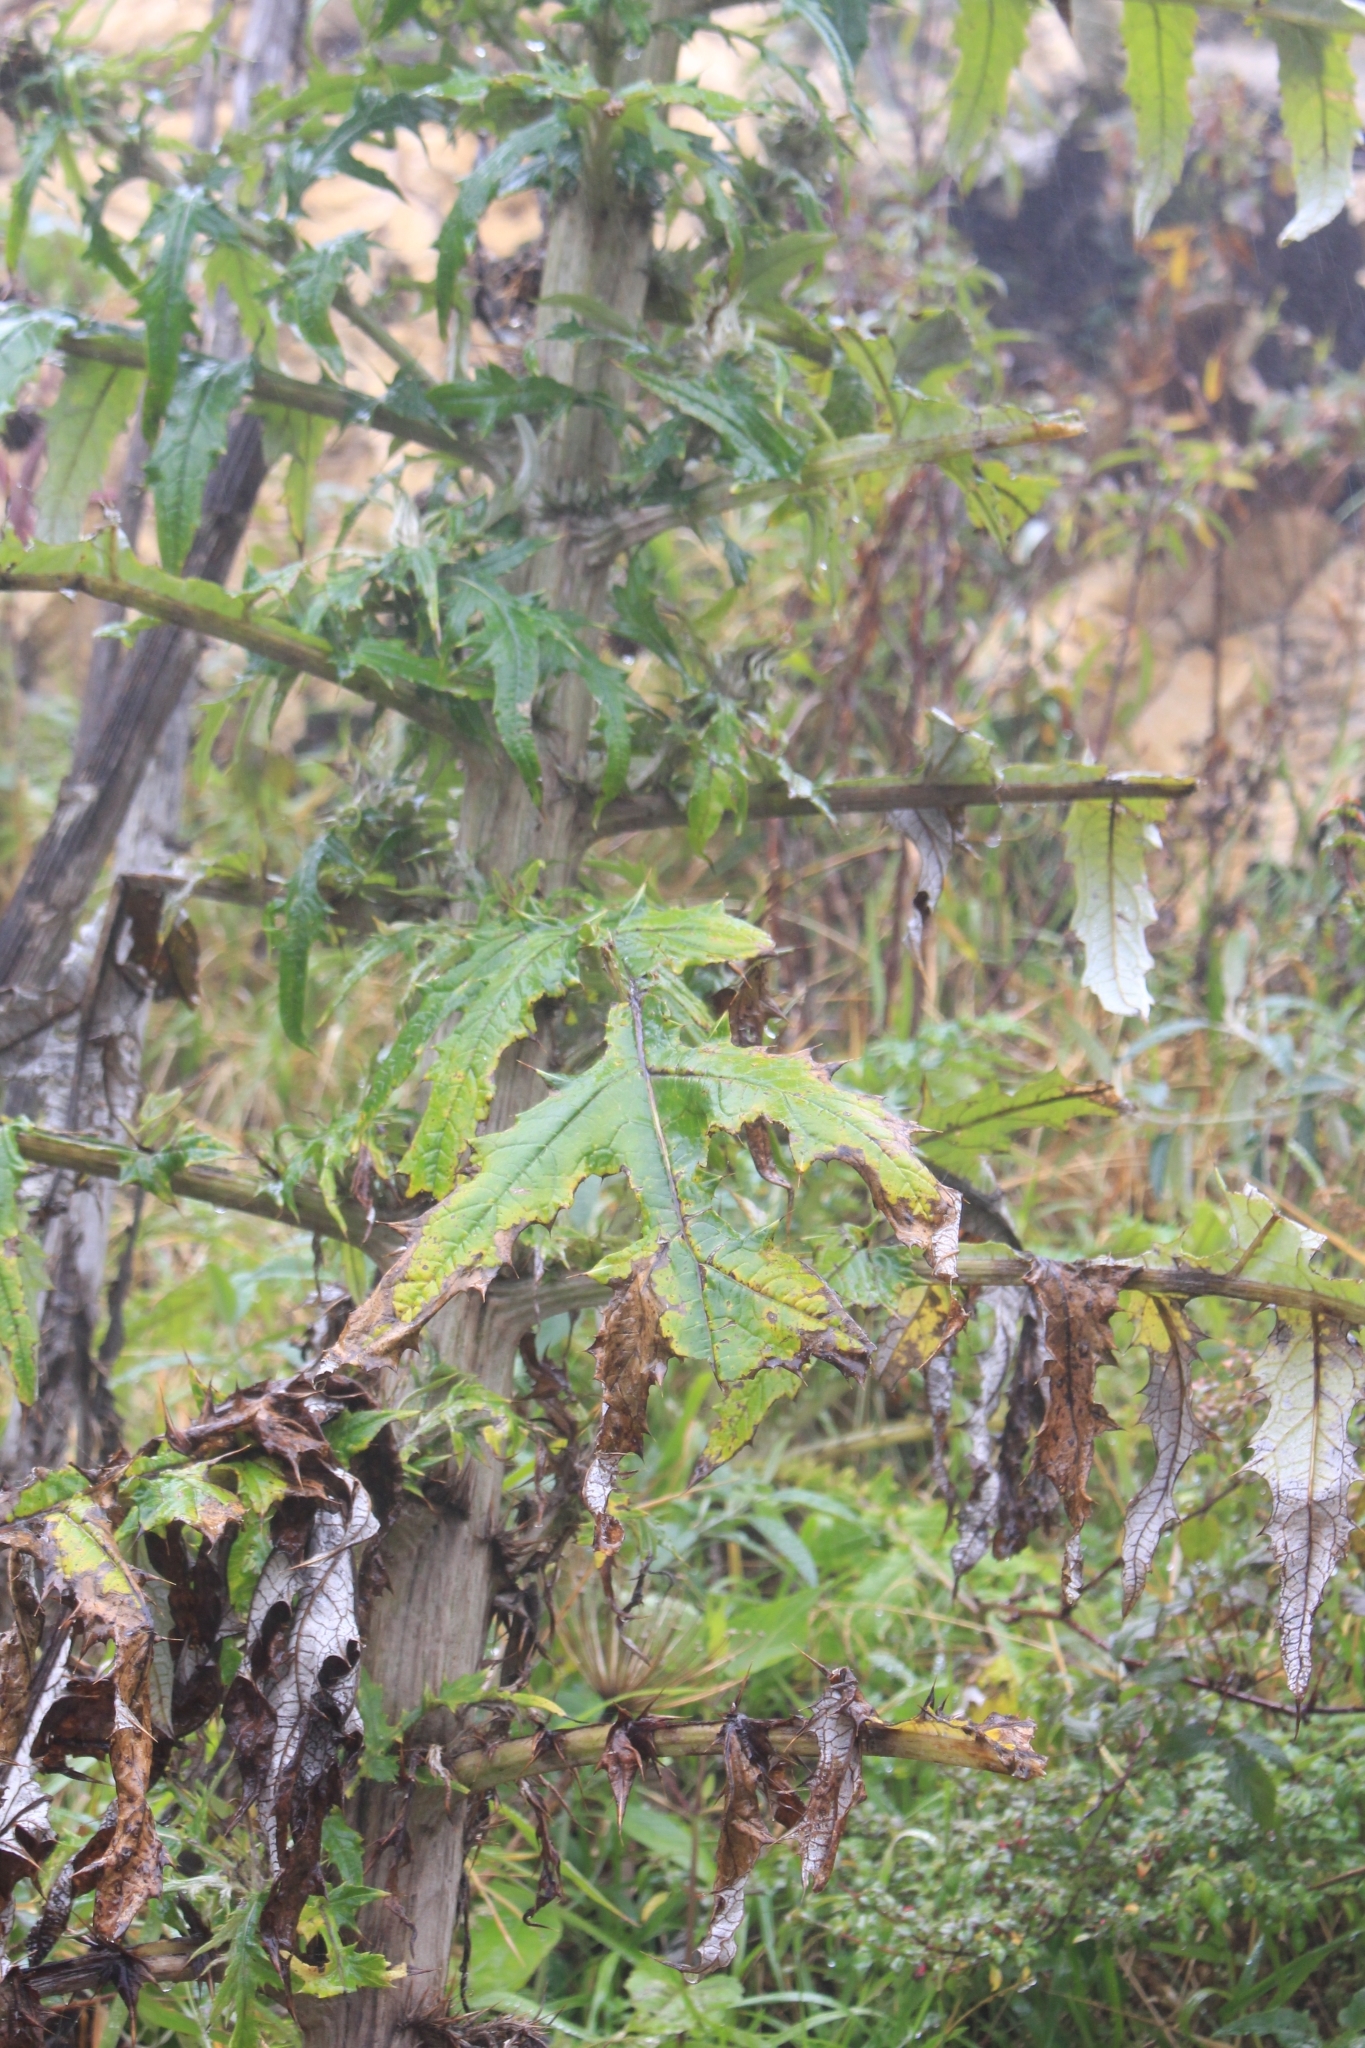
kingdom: Plantae
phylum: Tracheophyta
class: Magnoliopsida
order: Asterales
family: Asteraceae
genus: Cirsium
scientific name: Cirsium subcoriaceum
